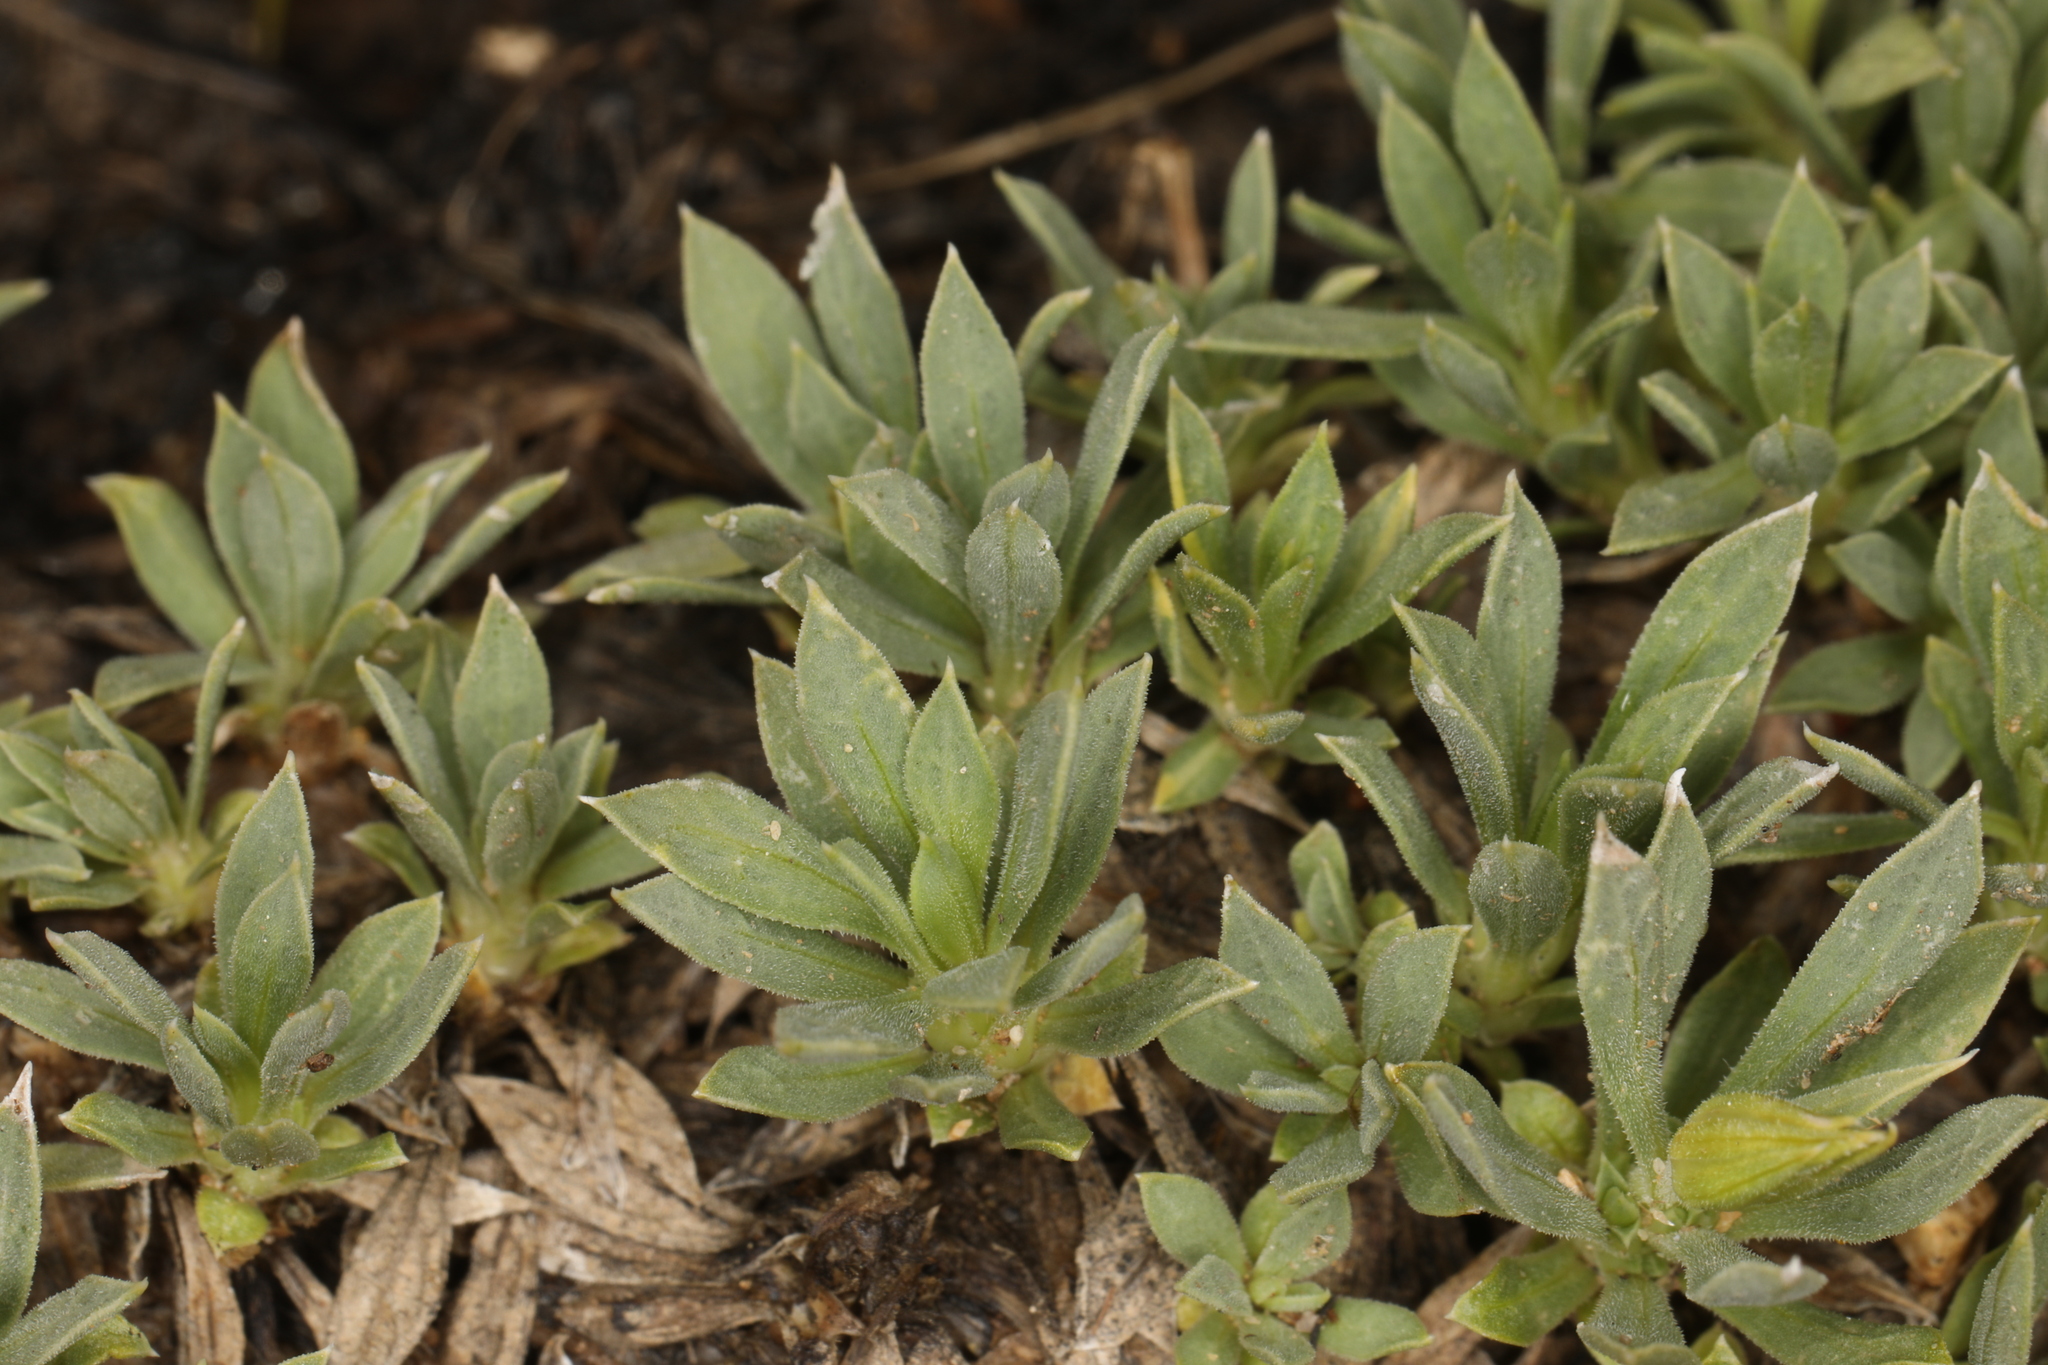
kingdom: Plantae
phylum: Tracheophyta
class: Magnoliopsida
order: Asterales
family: Asteraceae
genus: Stenotus
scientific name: Stenotus acaulis
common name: Stemless goldenweed
